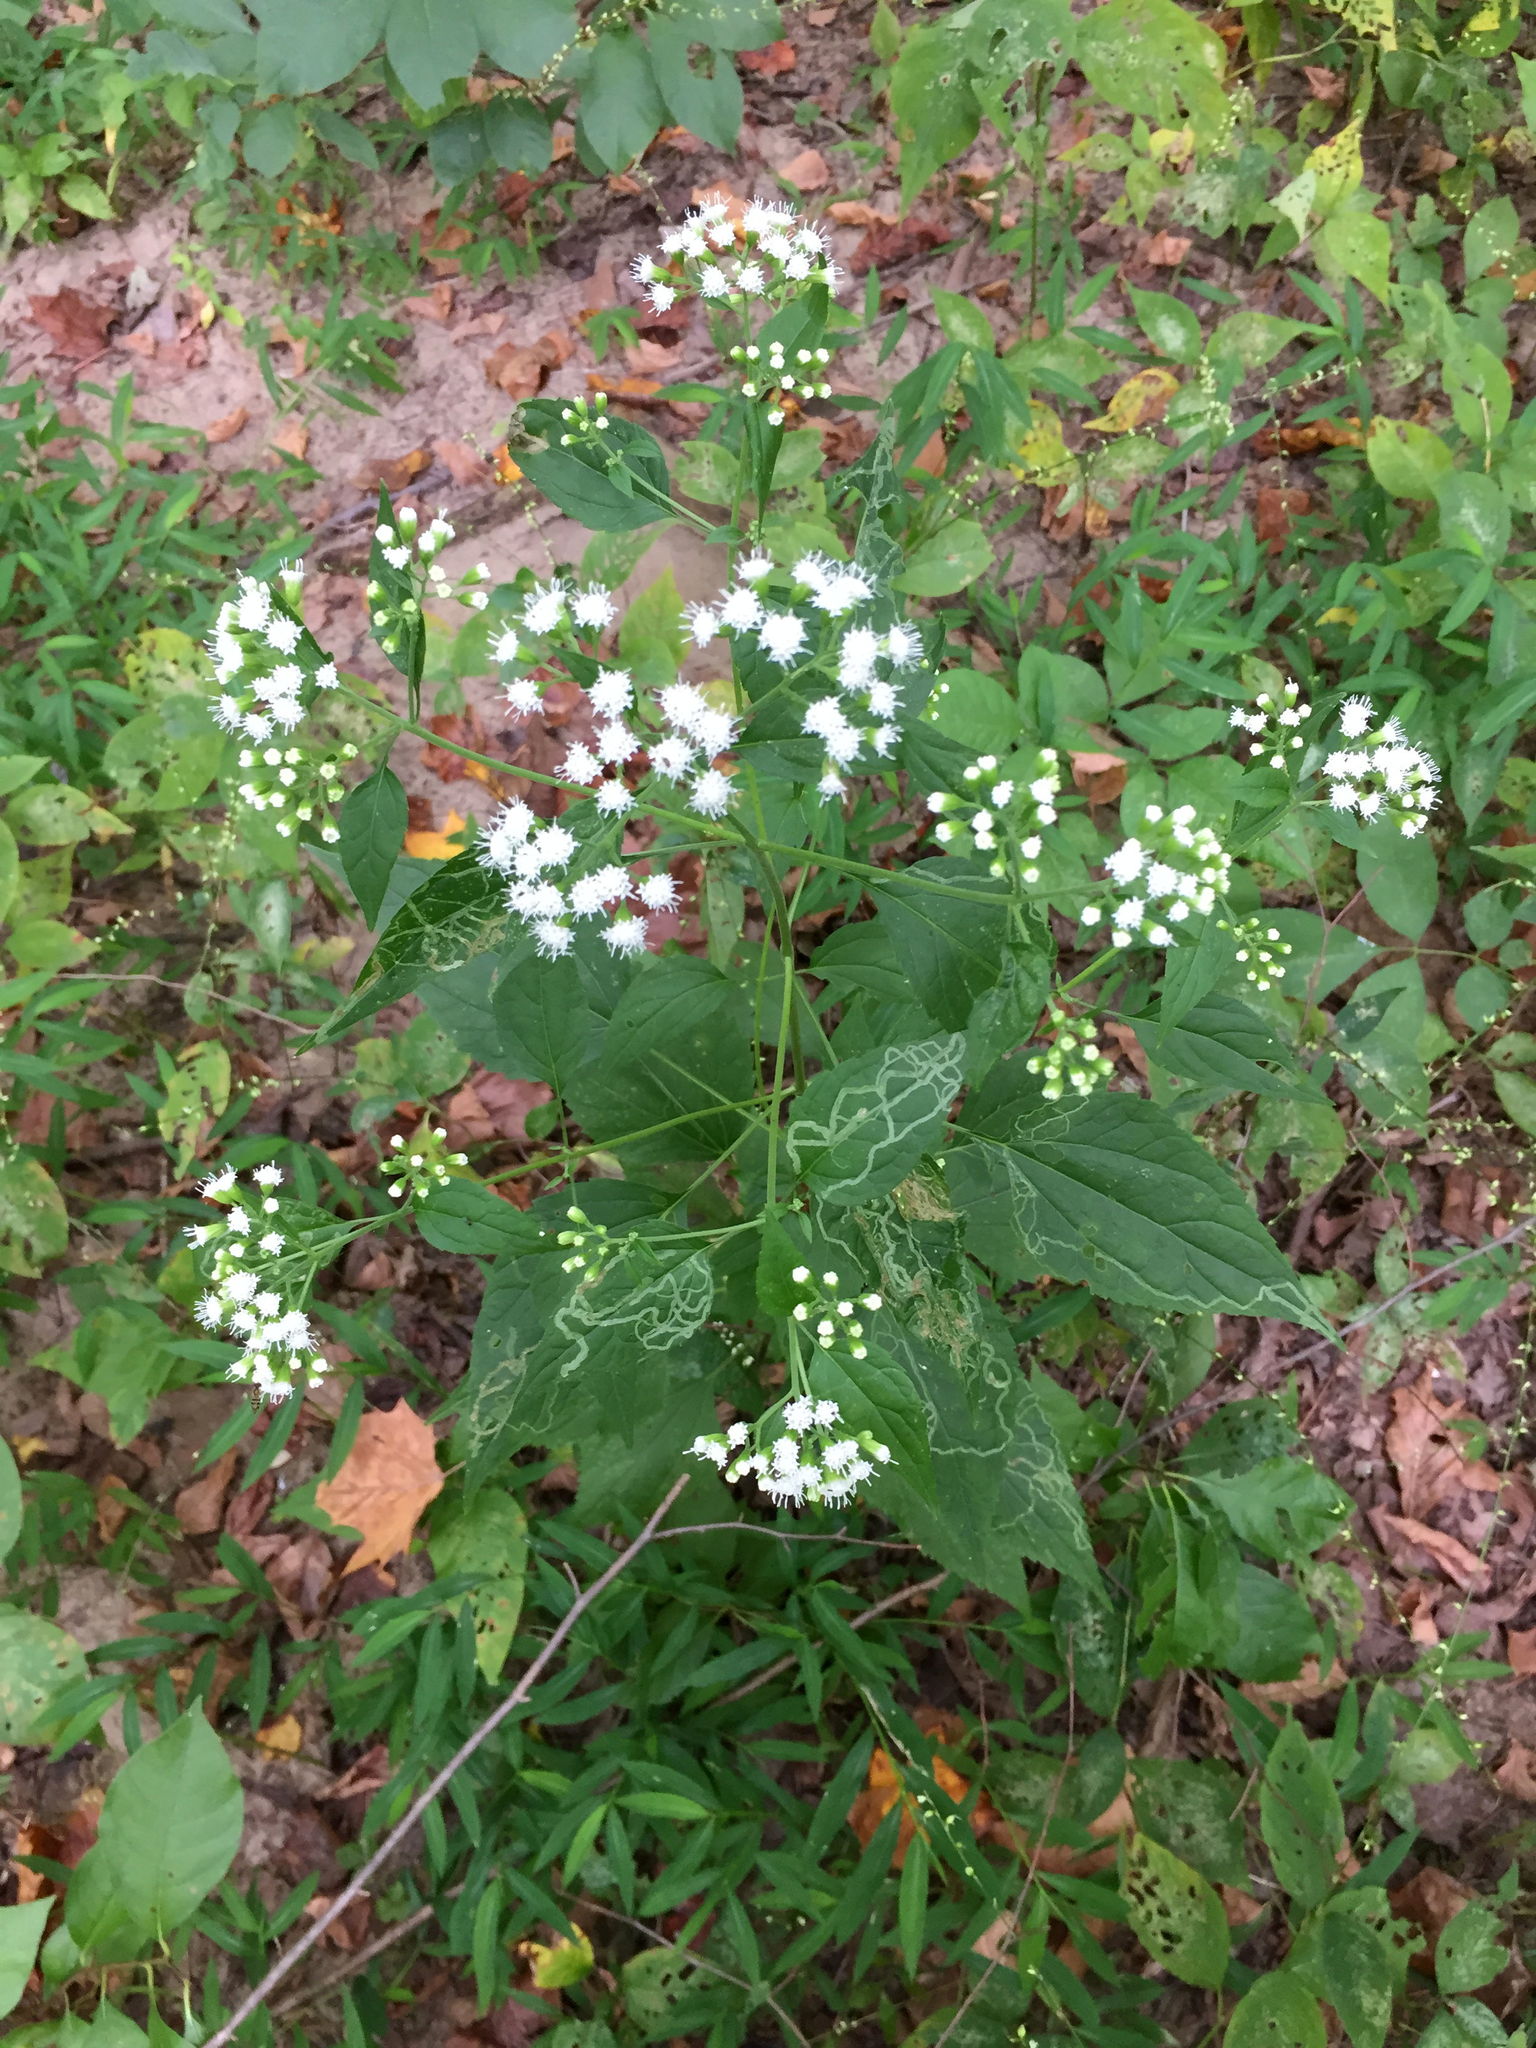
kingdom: Plantae
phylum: Tracheophyta
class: Magnoliopsida
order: Asterales
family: Asteraceae
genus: Ageratina
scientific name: Ageratina altissima
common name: White snakeroot
